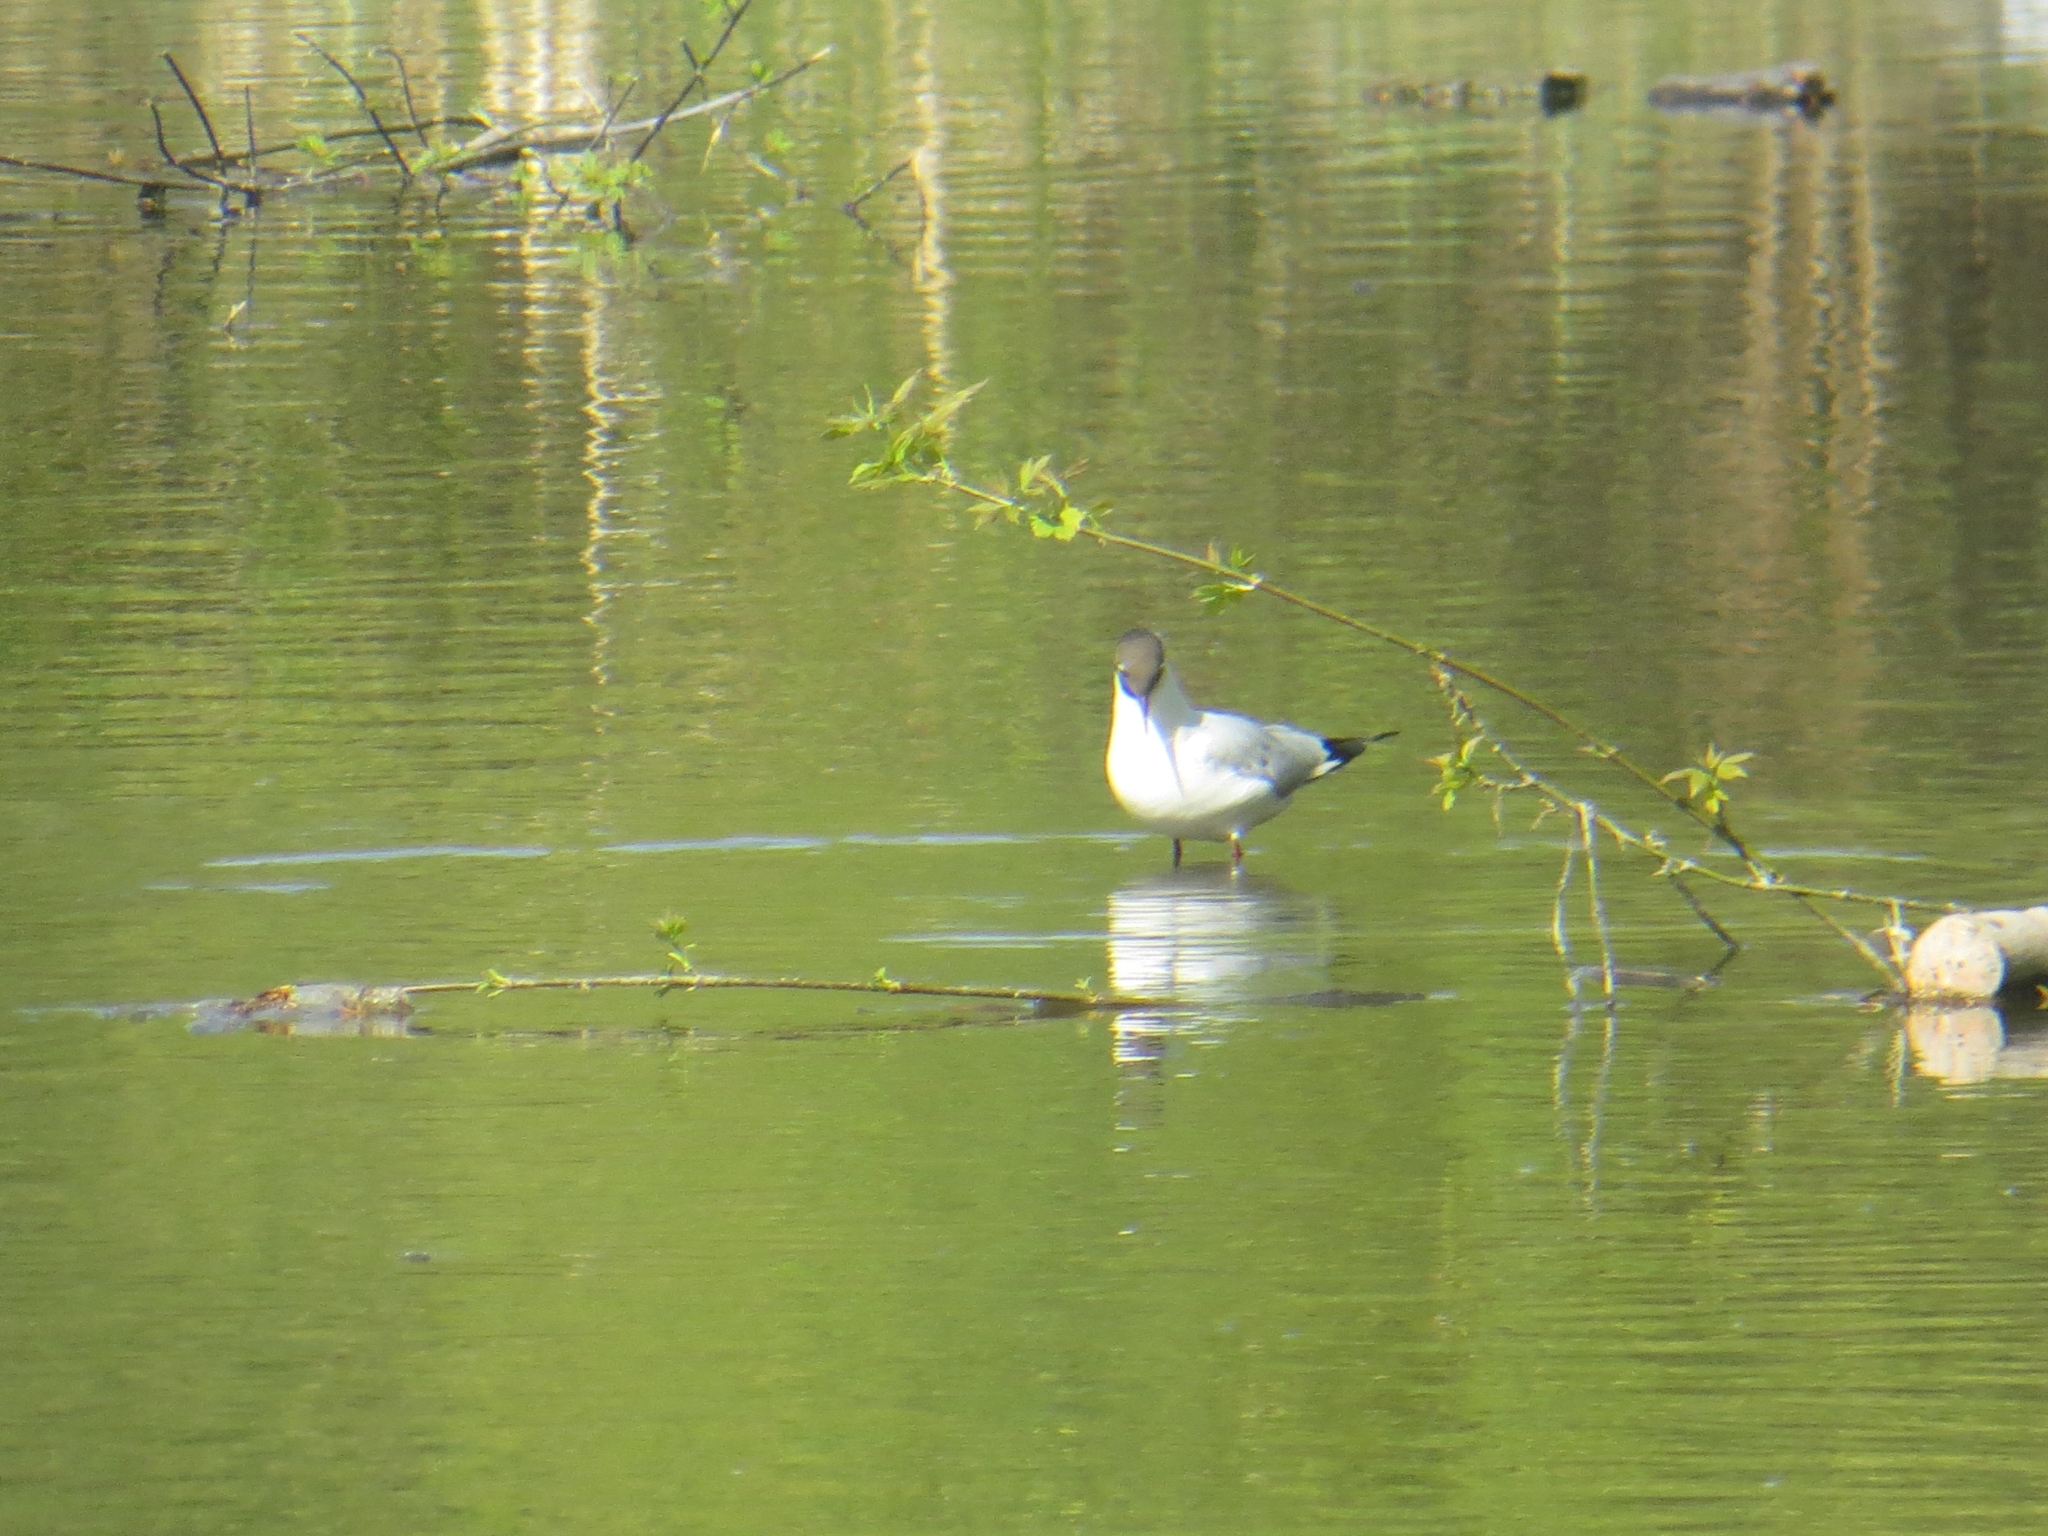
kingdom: Animalia
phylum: Chordata
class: Aves
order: Charadriiformes
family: Laridae
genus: Chroicocephalus
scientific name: Chroicocephalus ridibundus
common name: Black-headed gull
